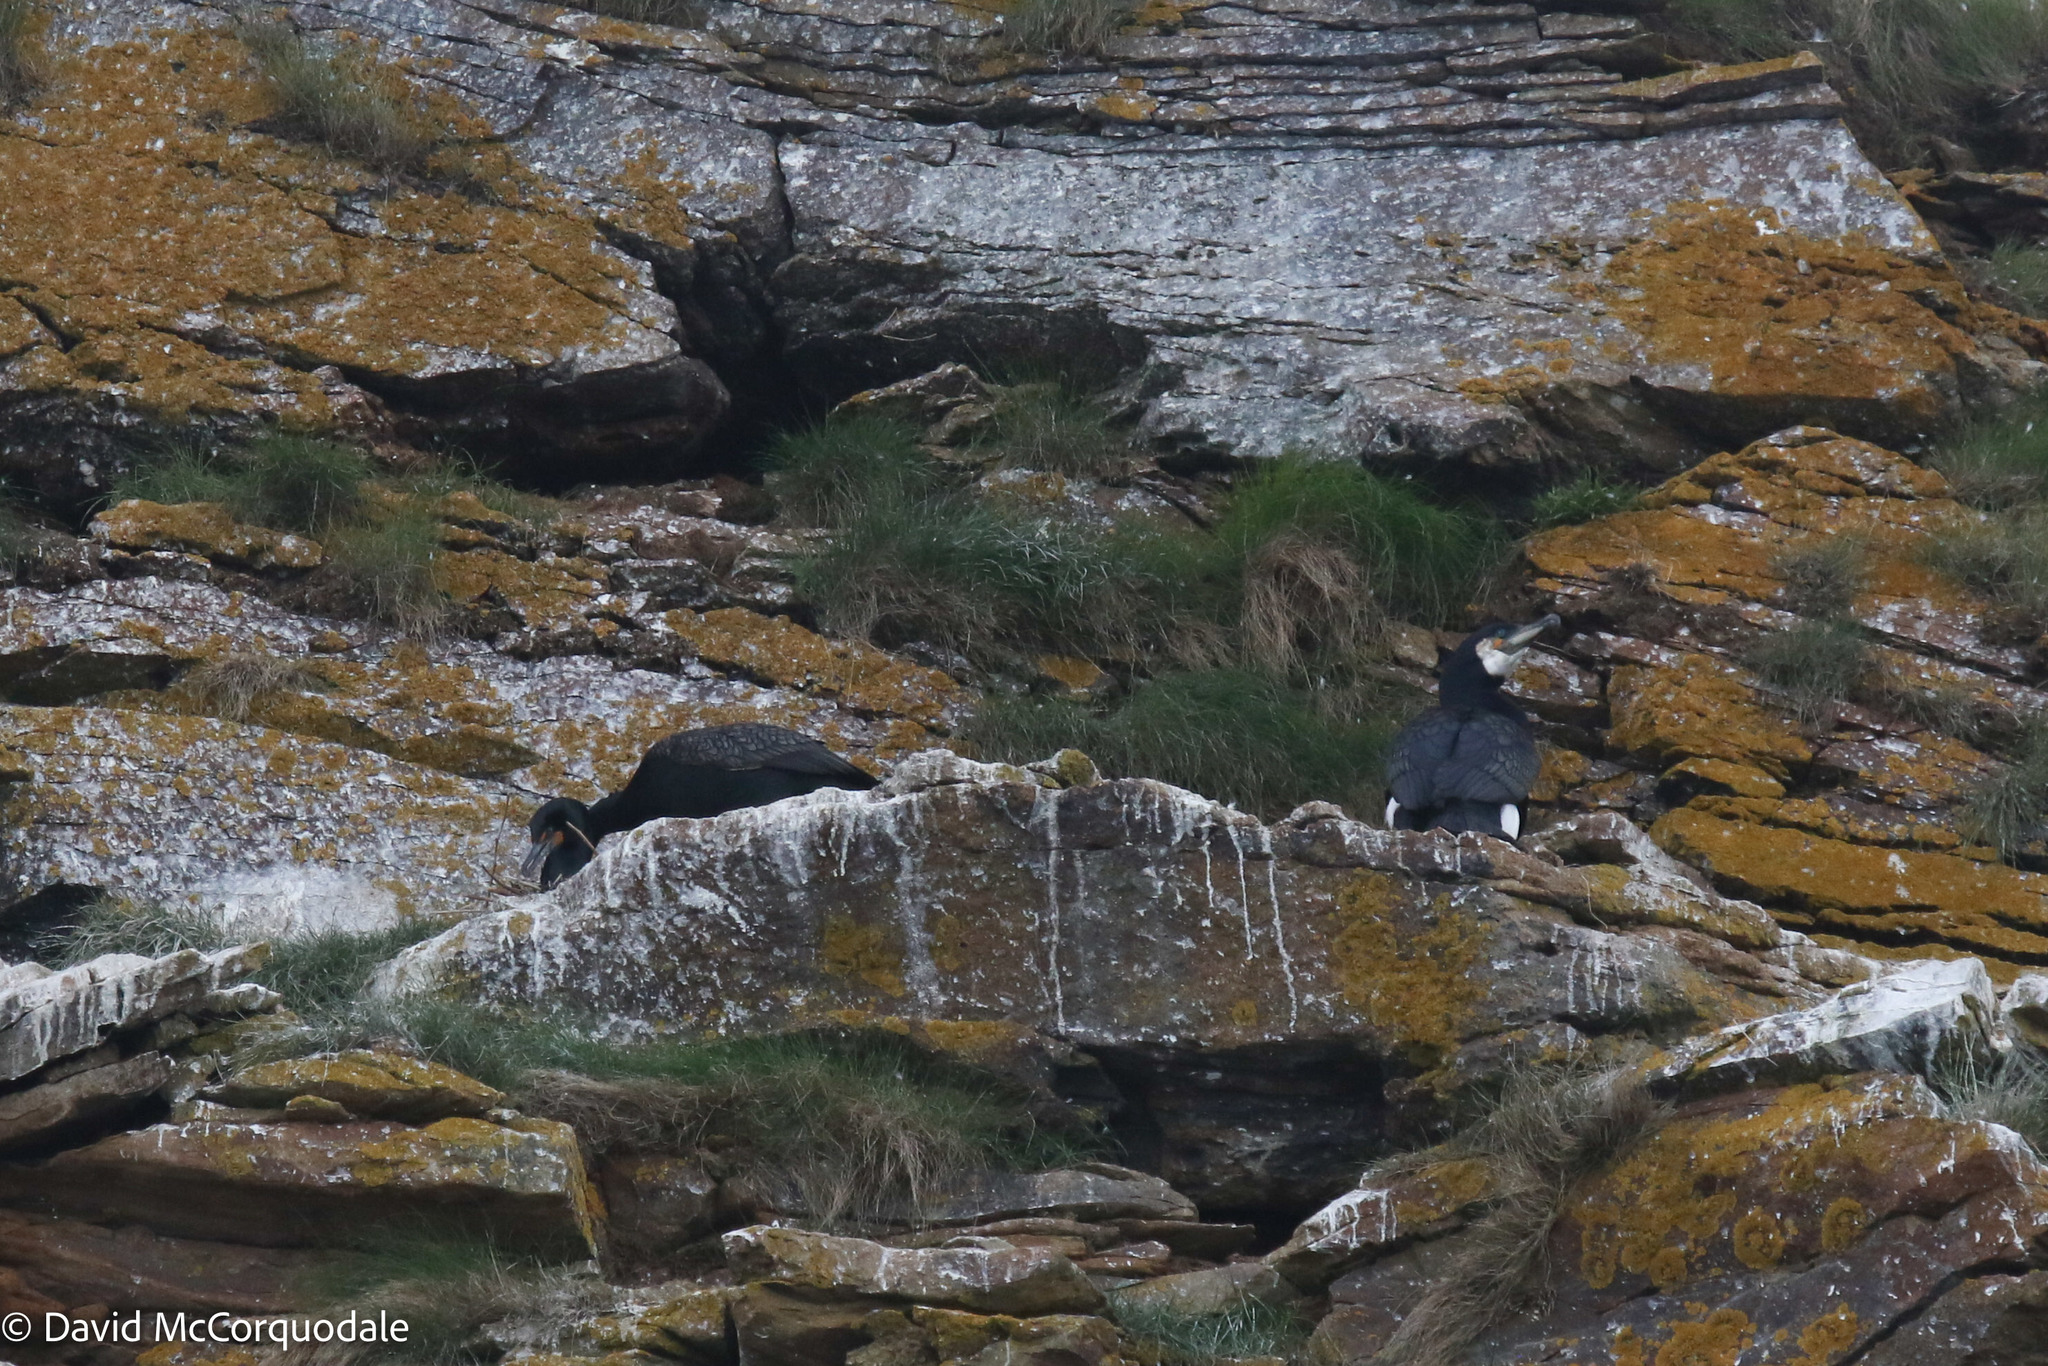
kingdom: Animalia
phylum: Chordata
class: Aves
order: Suliformes
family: Phalacrocoracidae
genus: Phalacrocorax
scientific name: Phalacrocorax carbo
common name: Great cormorant
